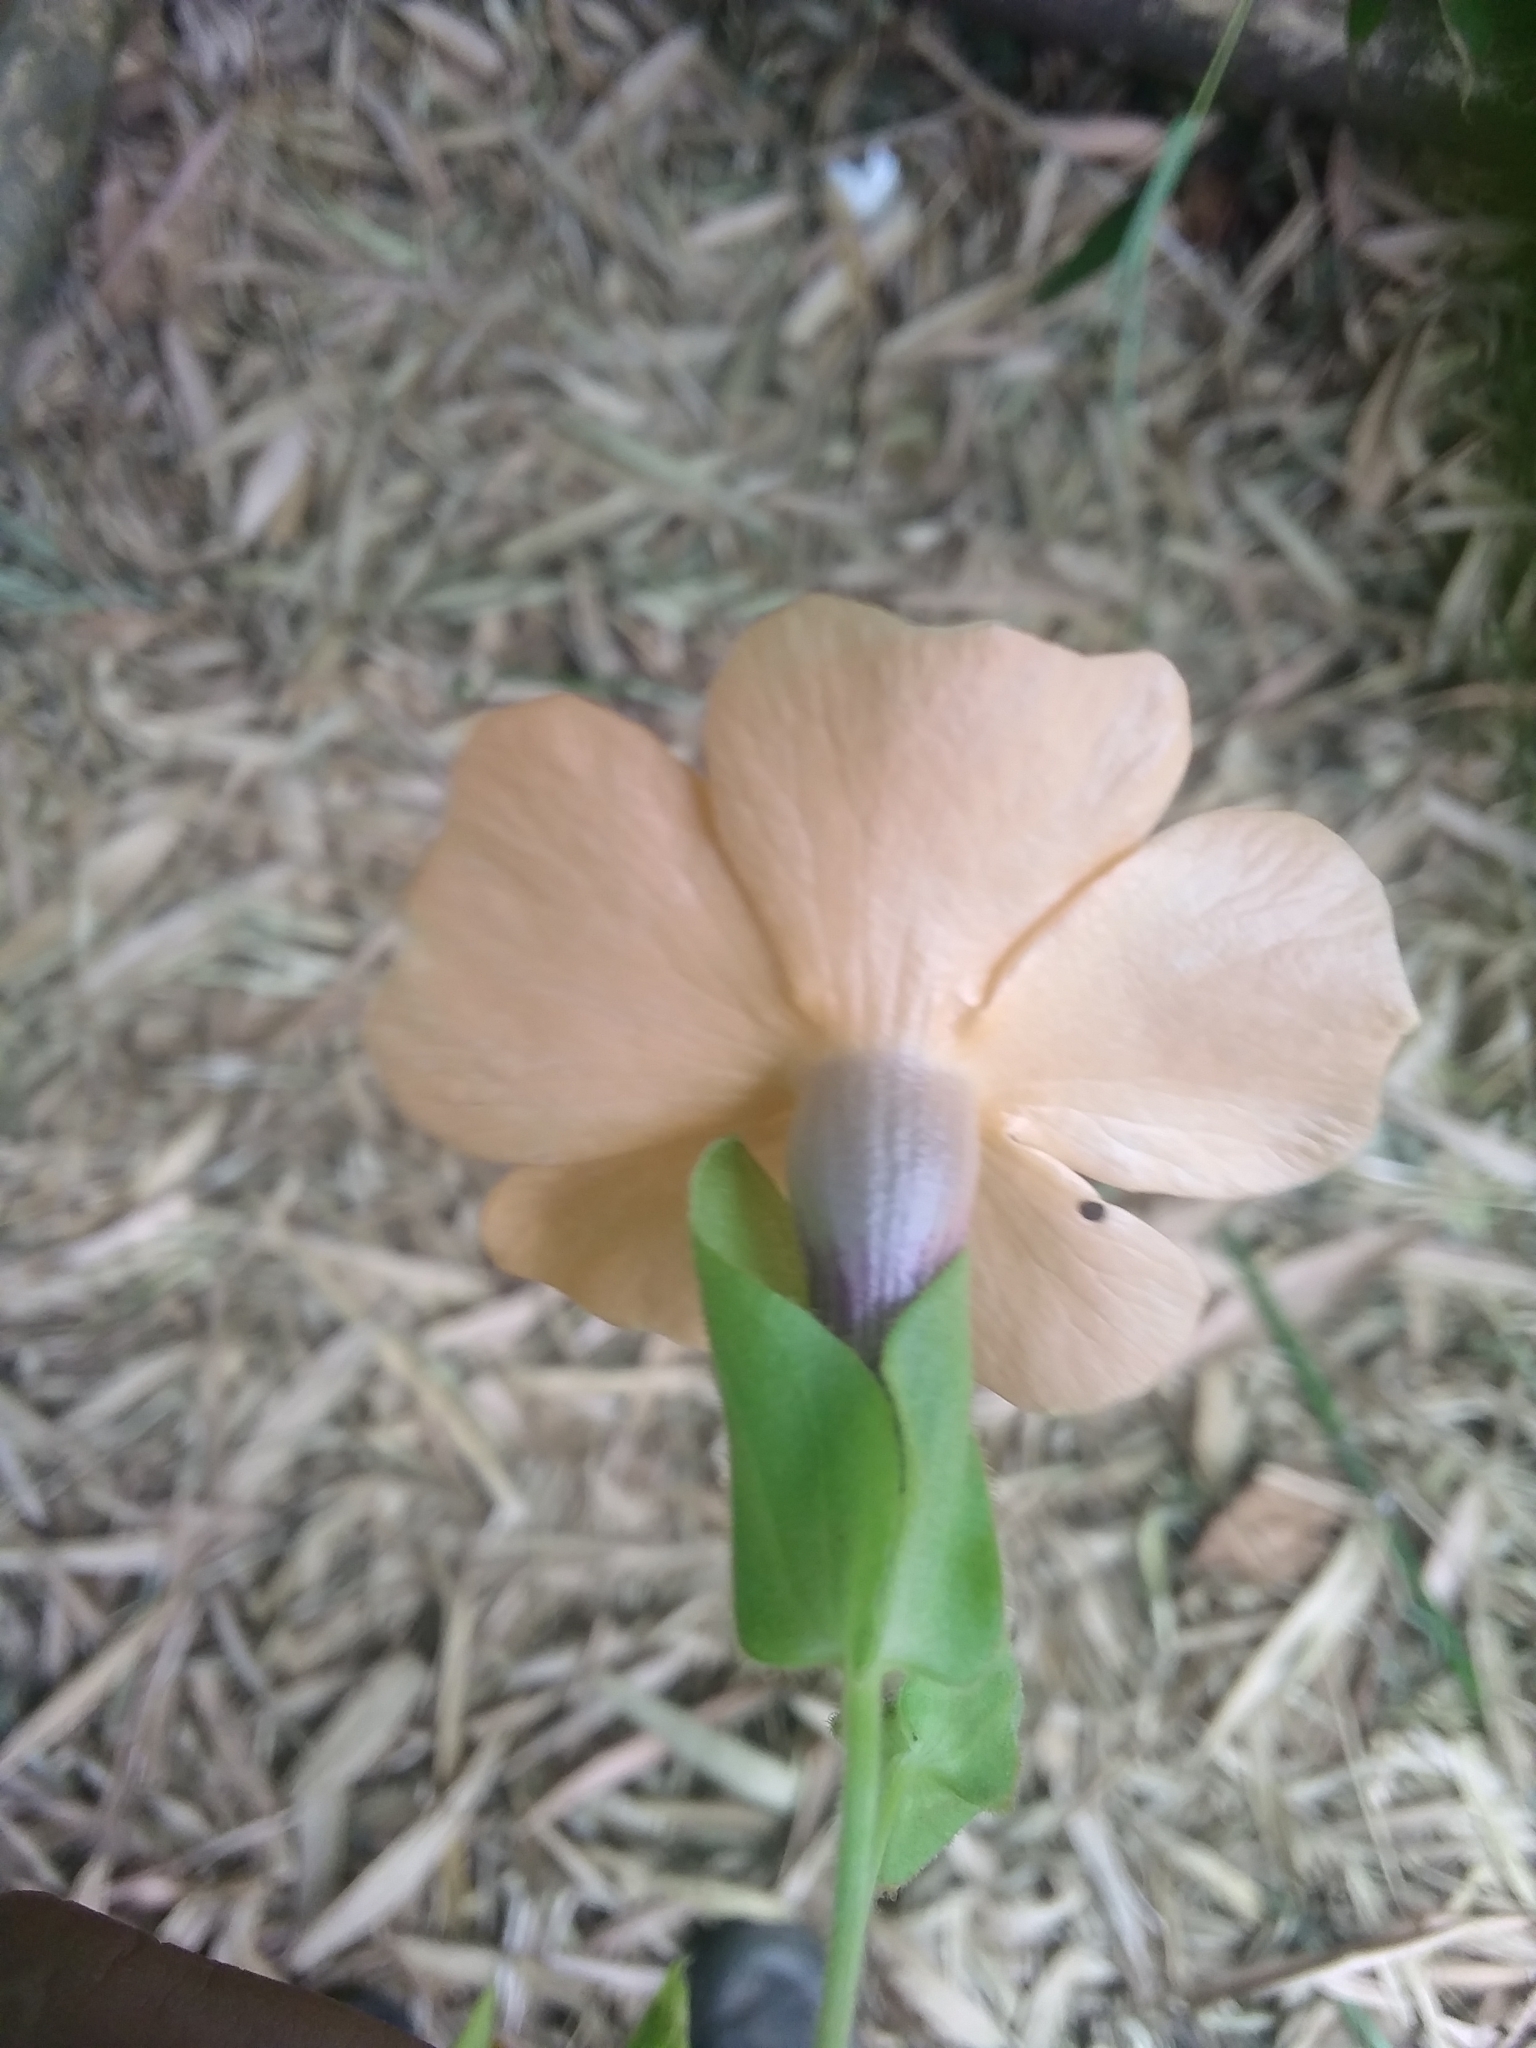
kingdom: Plantae
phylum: Tracheophyta
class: Magnoliopsida
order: Lamiales
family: Acanthaceae
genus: Thunbergia
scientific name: Thunbergia alata
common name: Blackeyed susan vine
